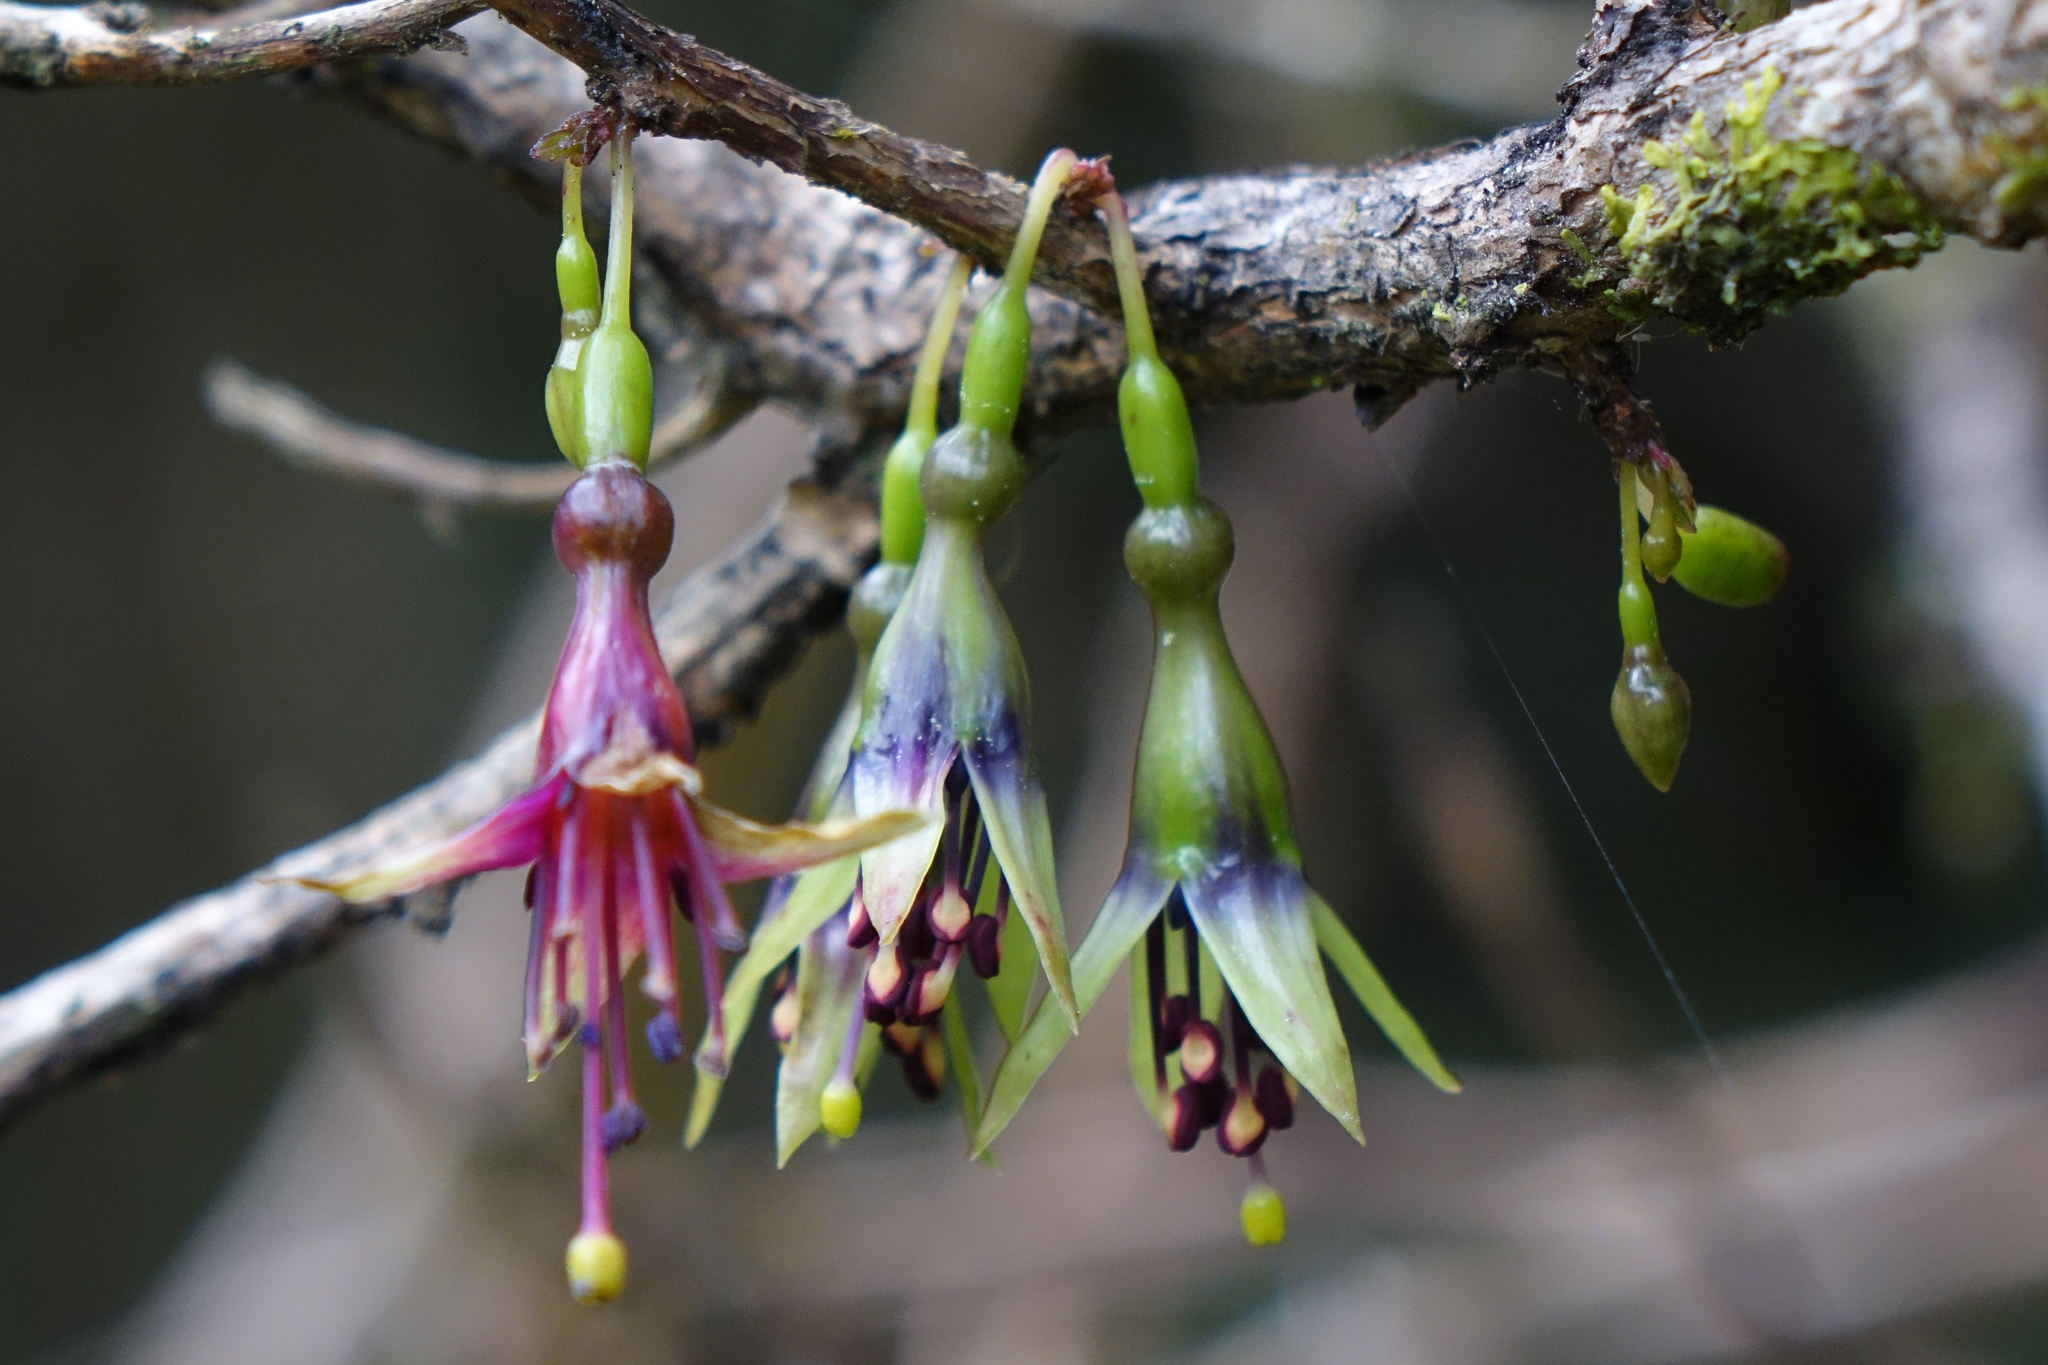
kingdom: Plantae
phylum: Tracheophyta
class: Magnoliopsida
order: Myrtales
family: Onagraceae
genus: Fuchsia
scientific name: Fuchsia excorticata
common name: Tree fuchsia
